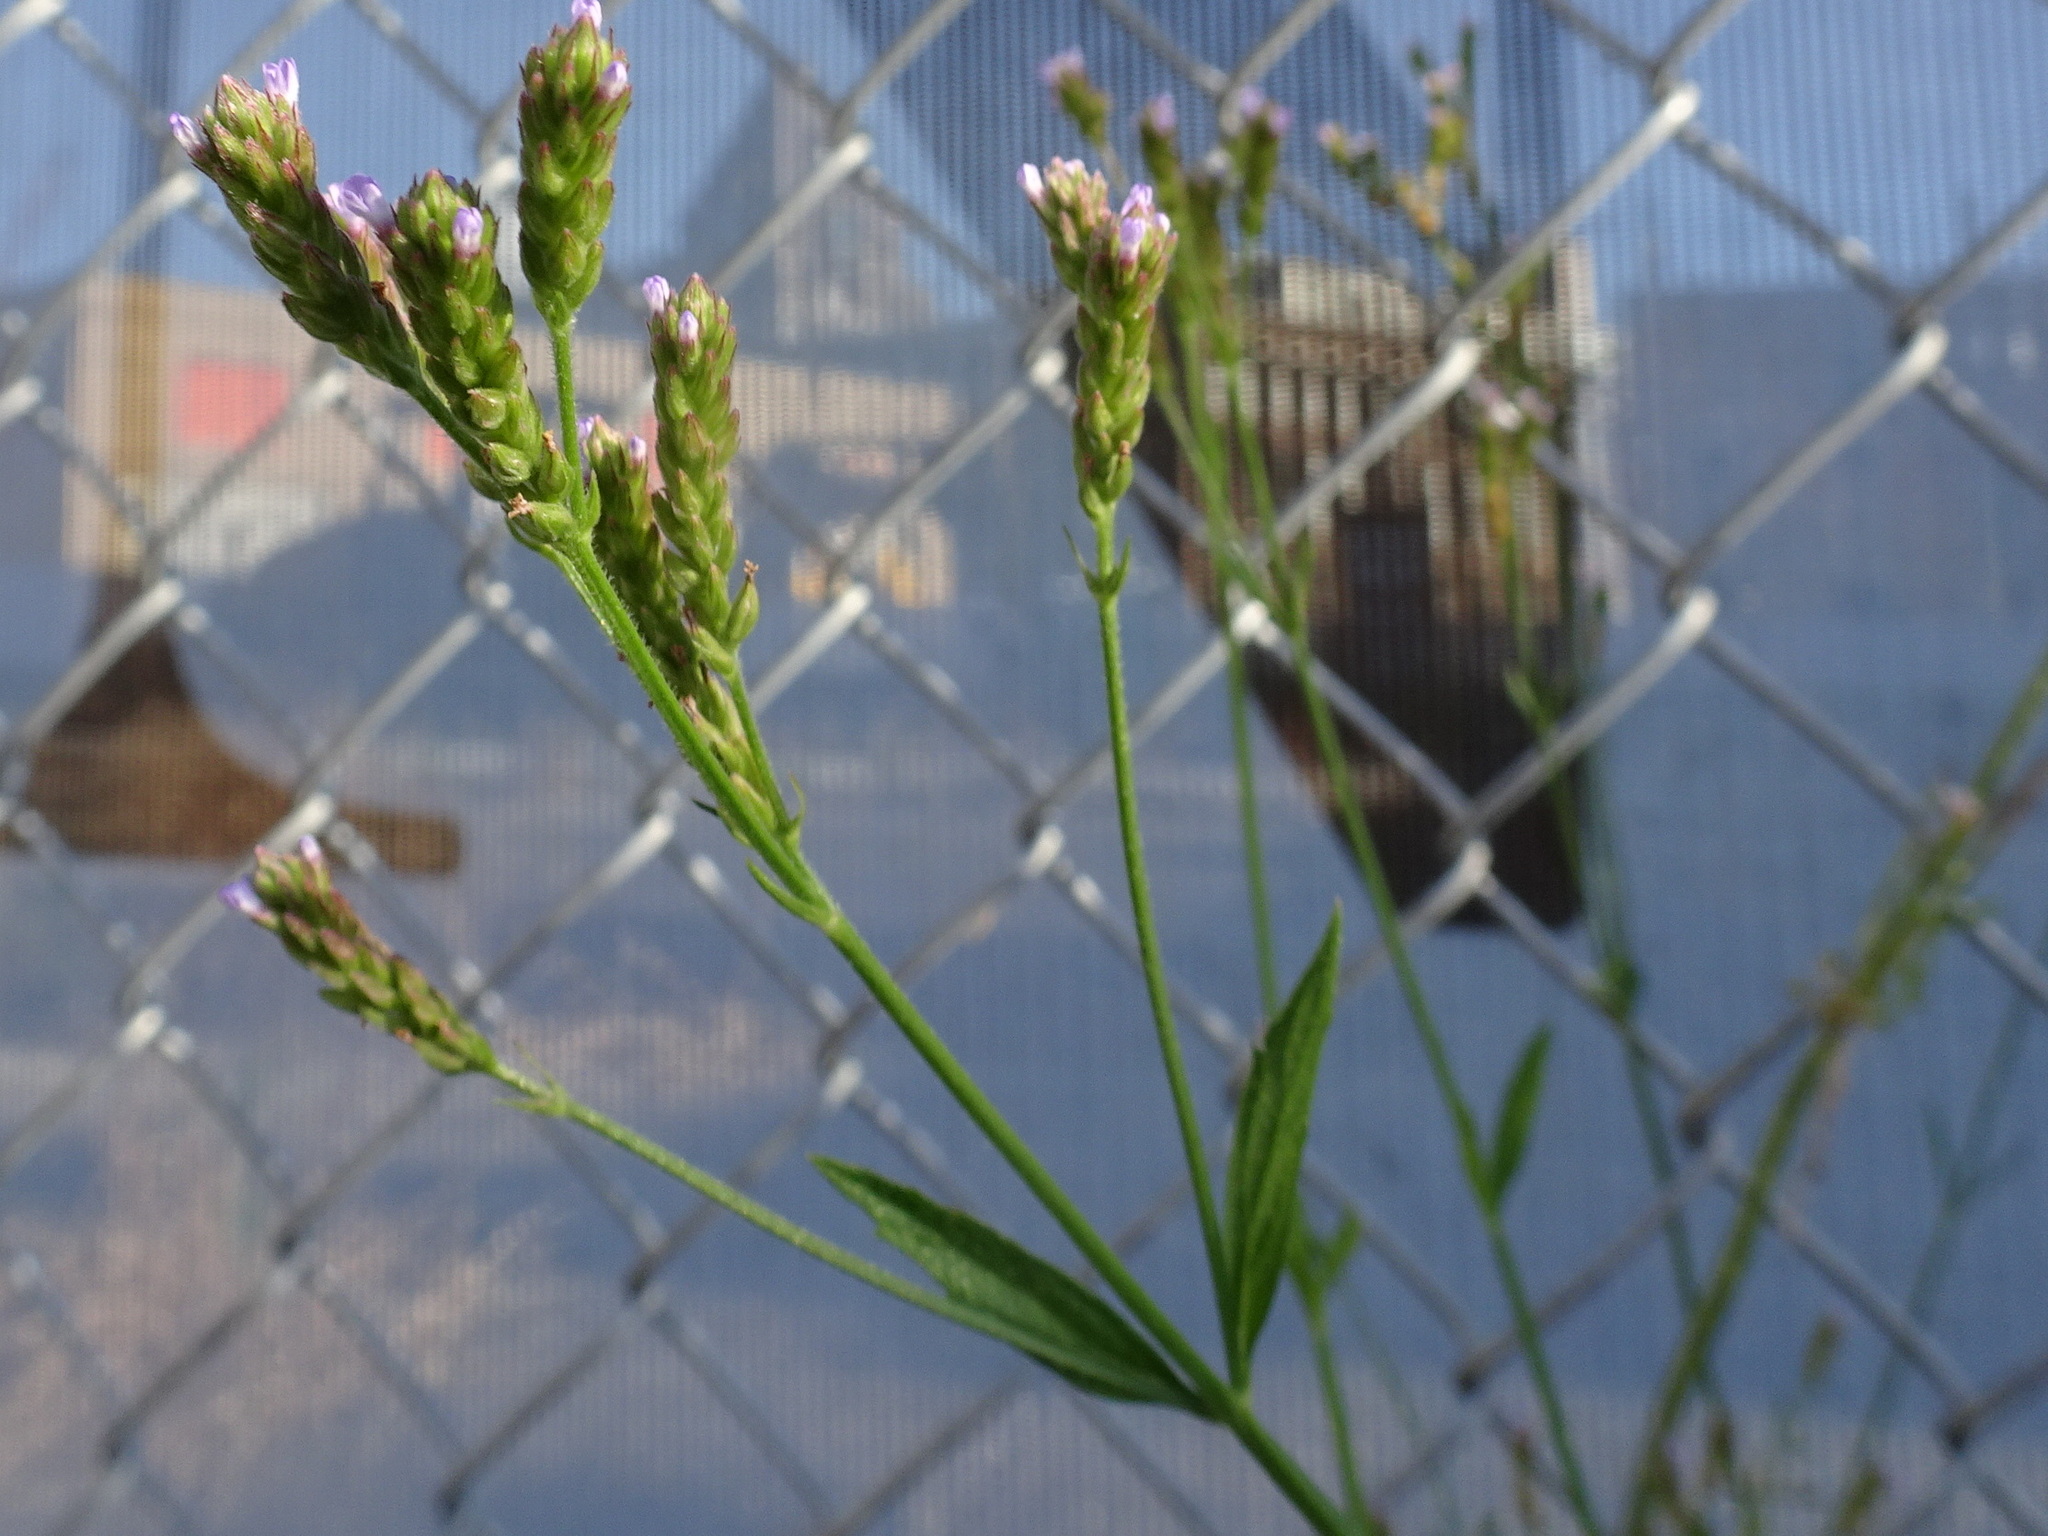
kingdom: Plantae
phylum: Tracheophyta
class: Magnoliopsida
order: Lamiales
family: Verbenaceae
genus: Verbena
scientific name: Verbena brasiliensis
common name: Brazilian vervain
